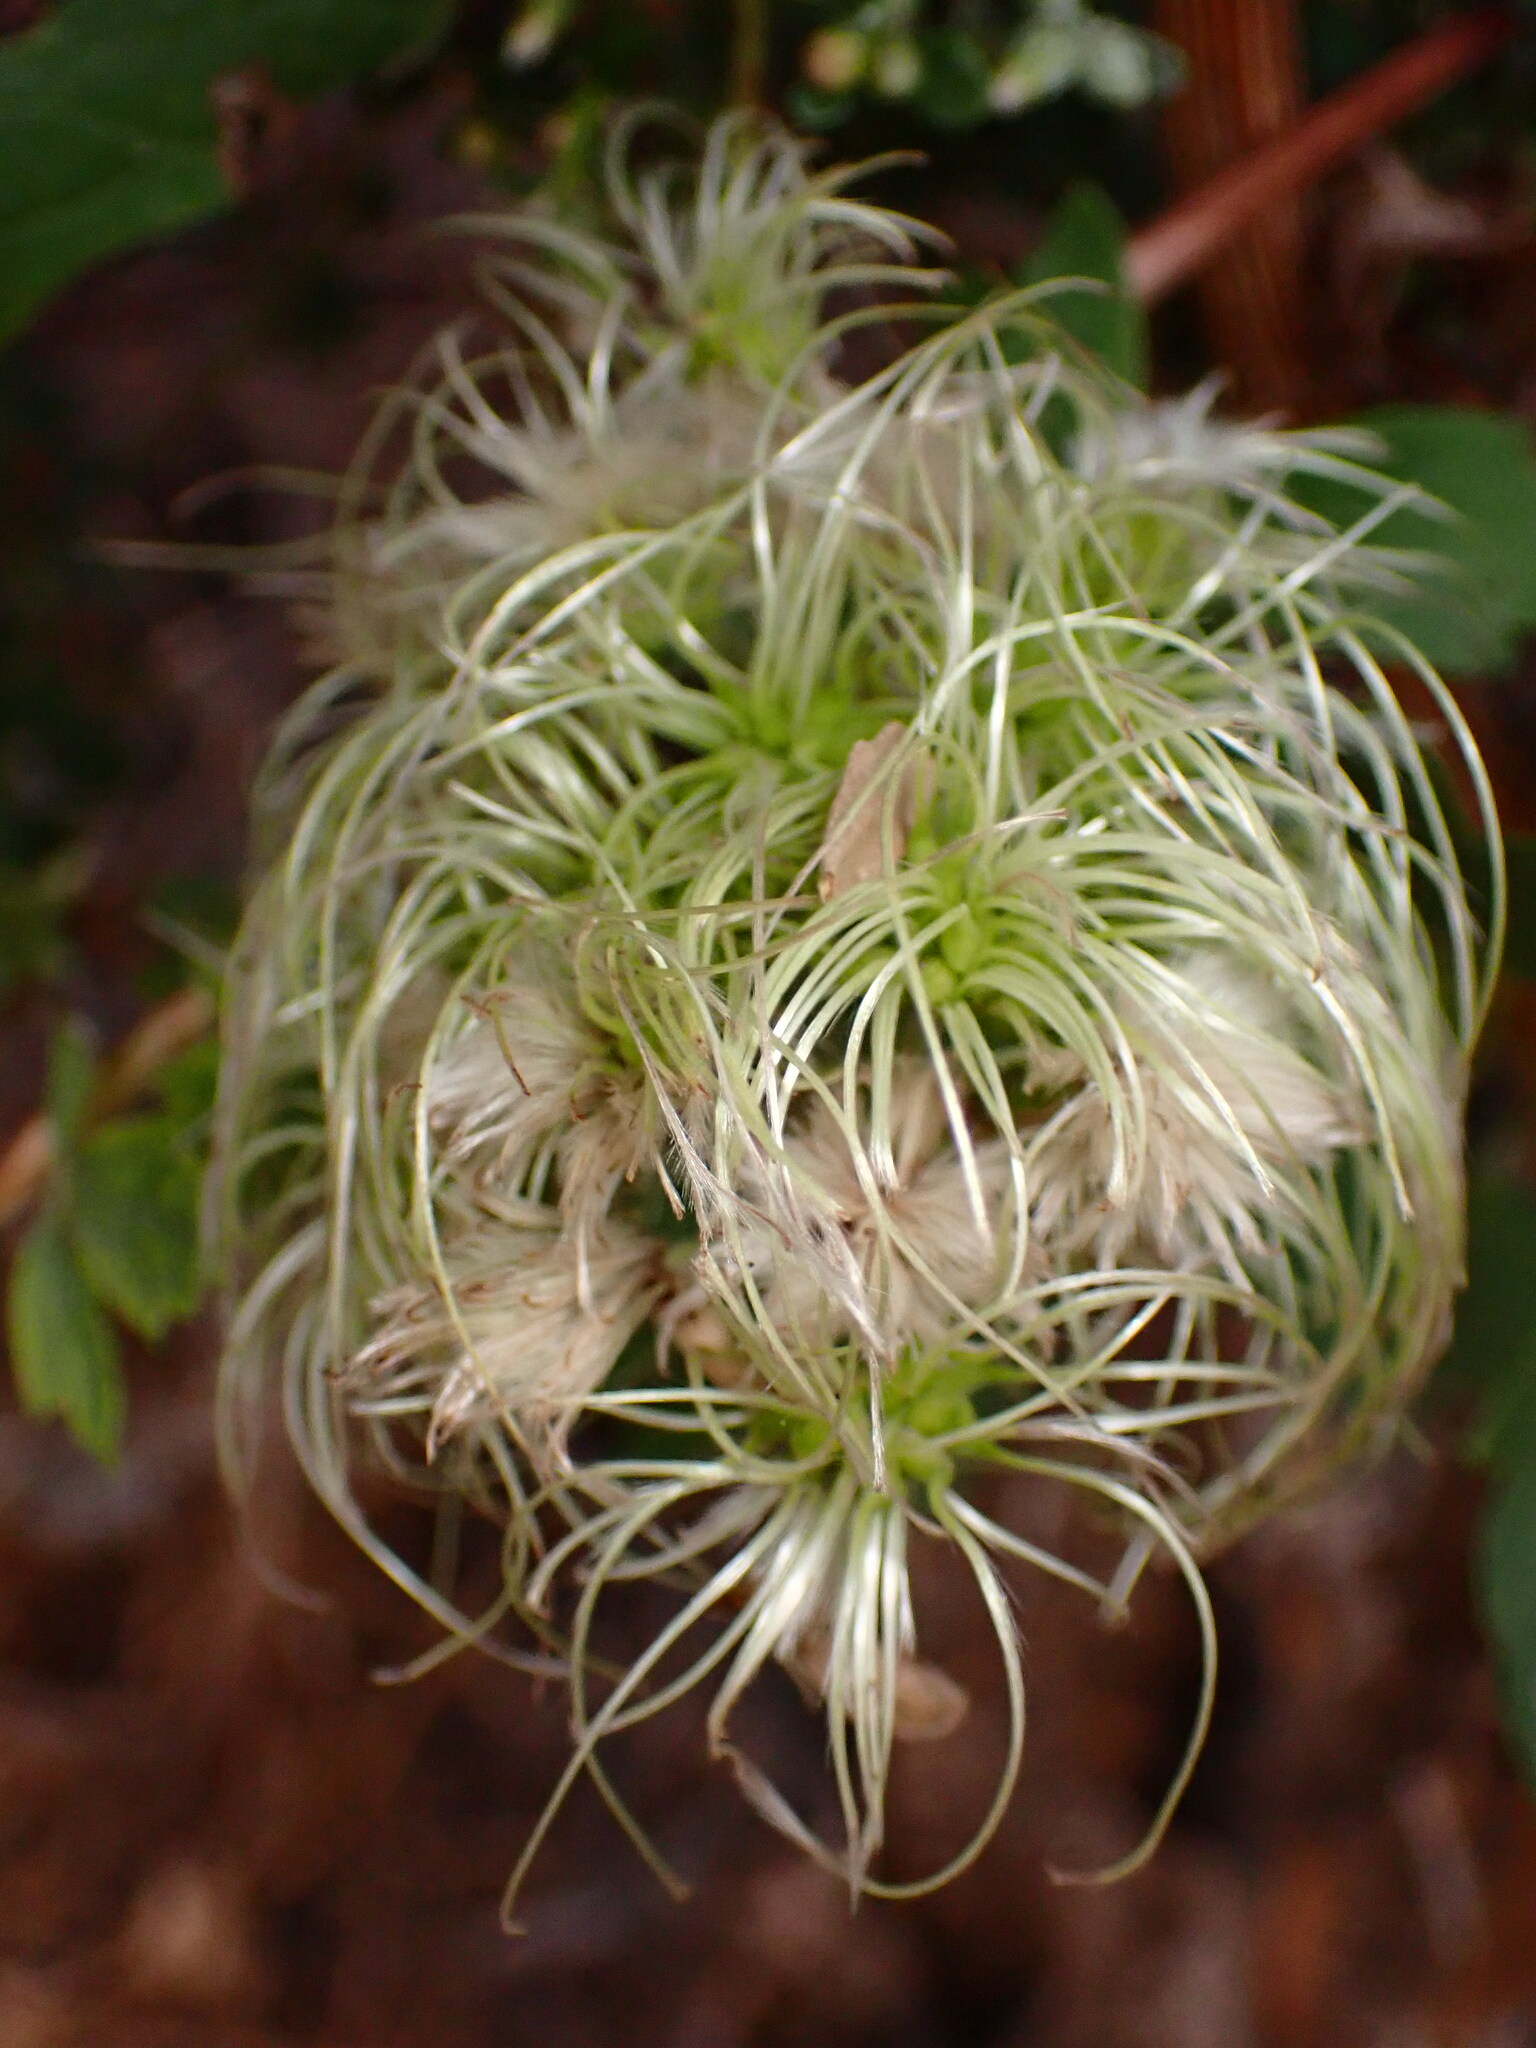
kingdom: Plantae
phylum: Tracheophyta
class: Magnoliopsida
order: Ranunculales
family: Ranunculaceae
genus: Clematis
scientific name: Clematis ligusticifolia
